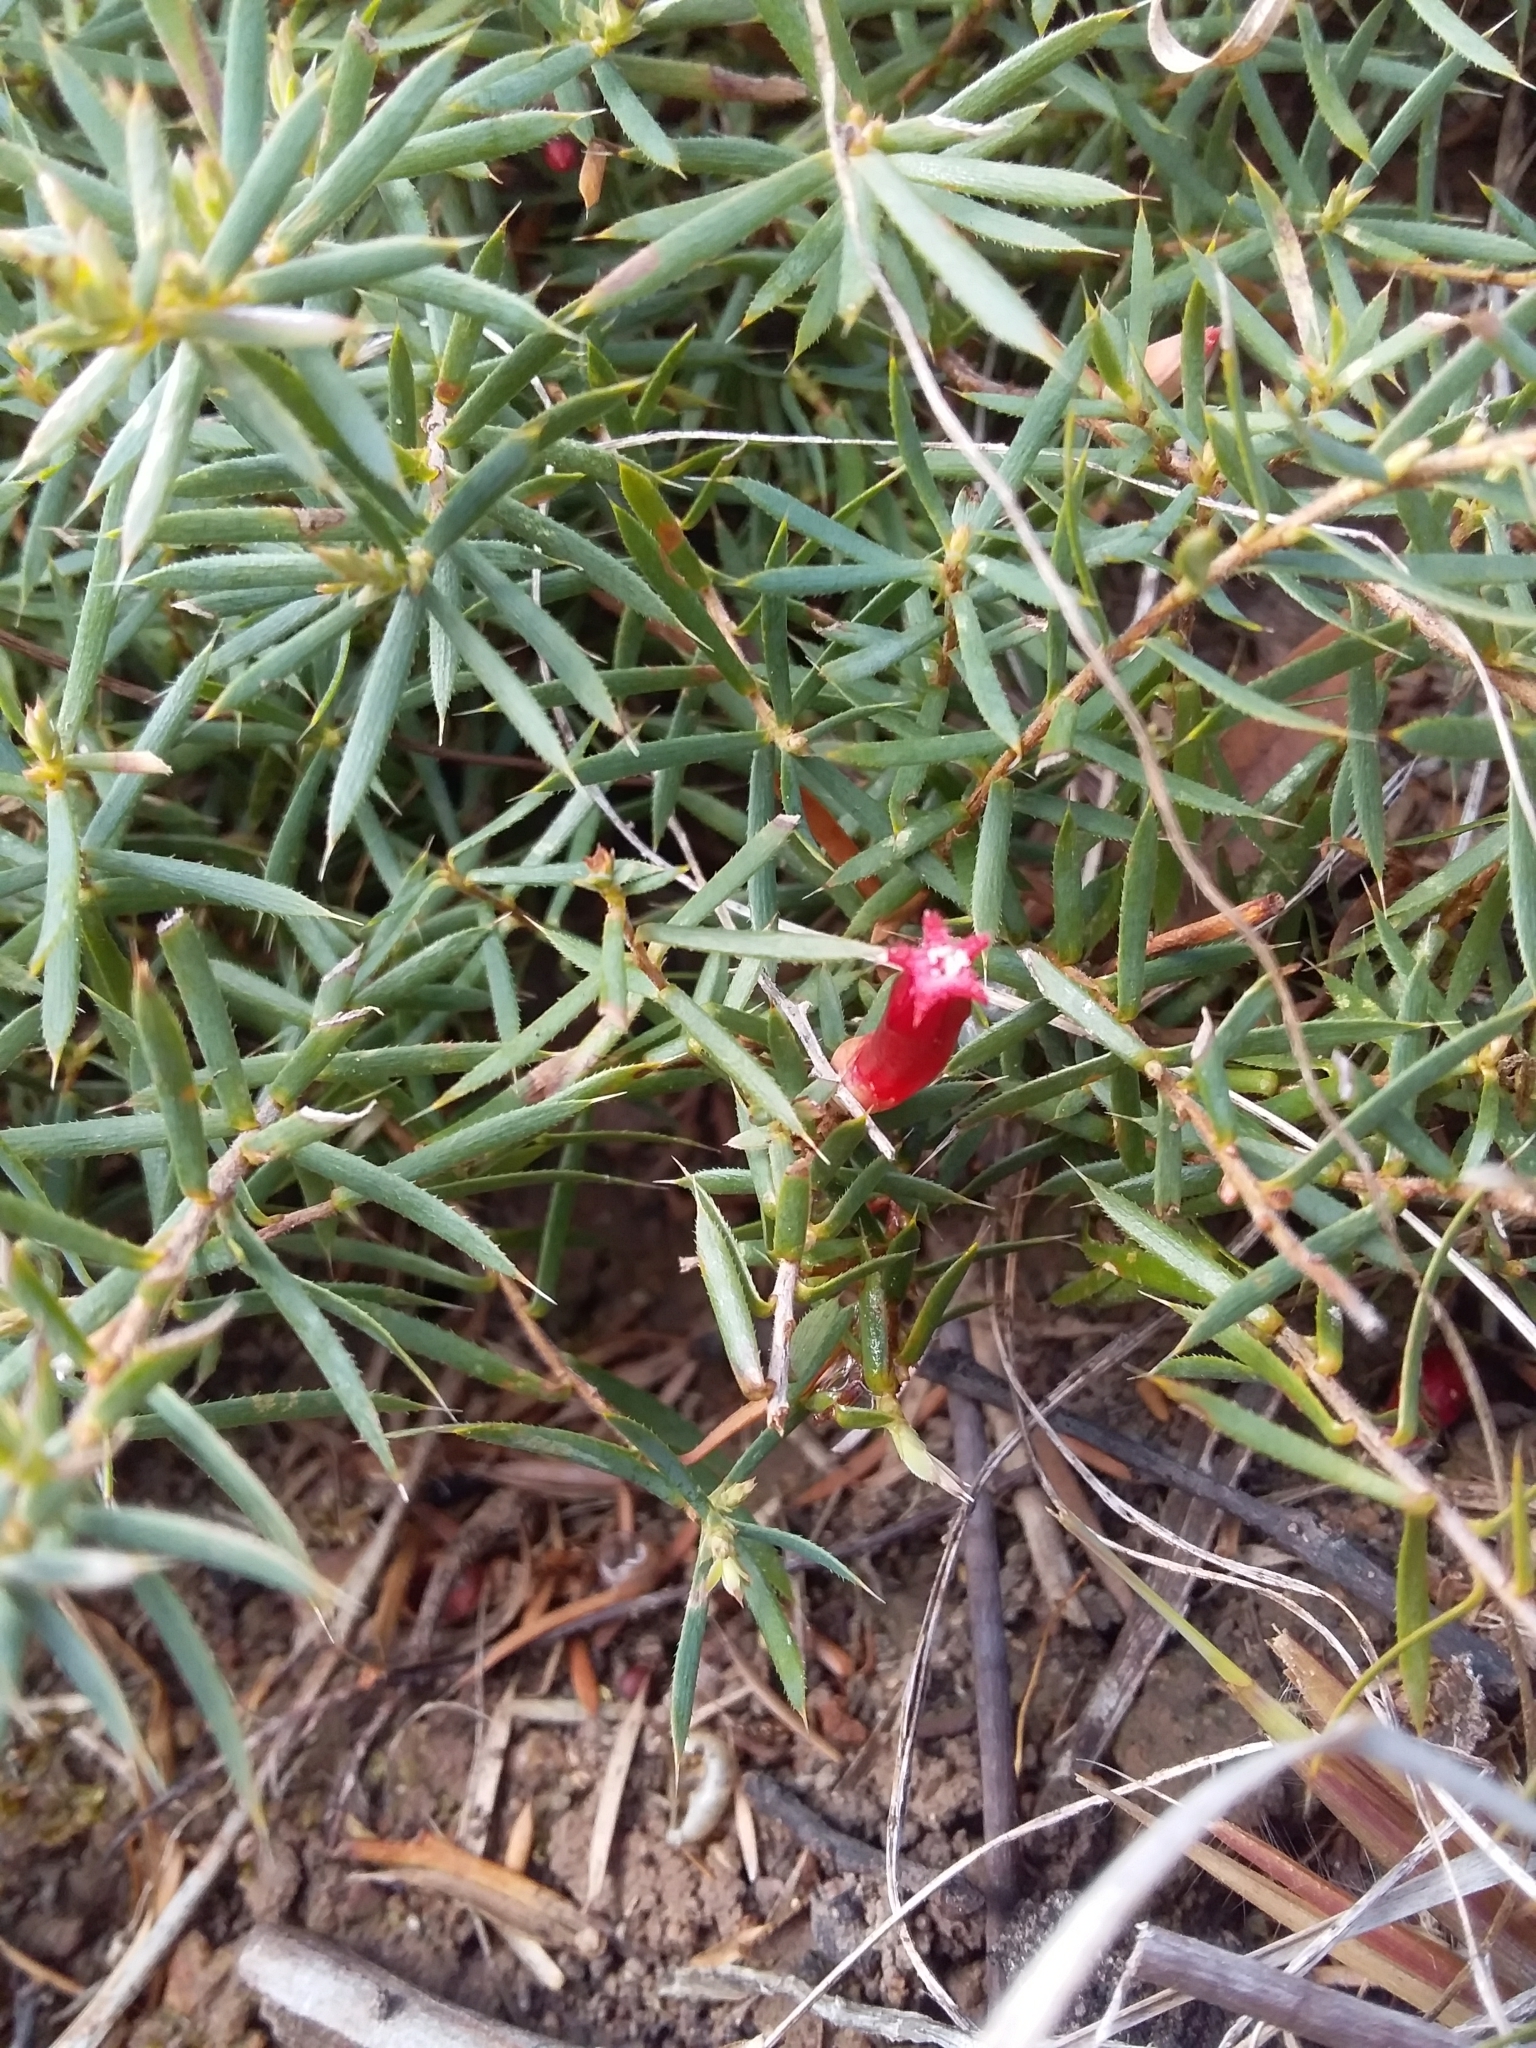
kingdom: Plantae
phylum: Tracheophyta
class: Magnoliopsida
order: Ericales
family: Ericaceae
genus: Styphelia
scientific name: Styphelia humifusa
